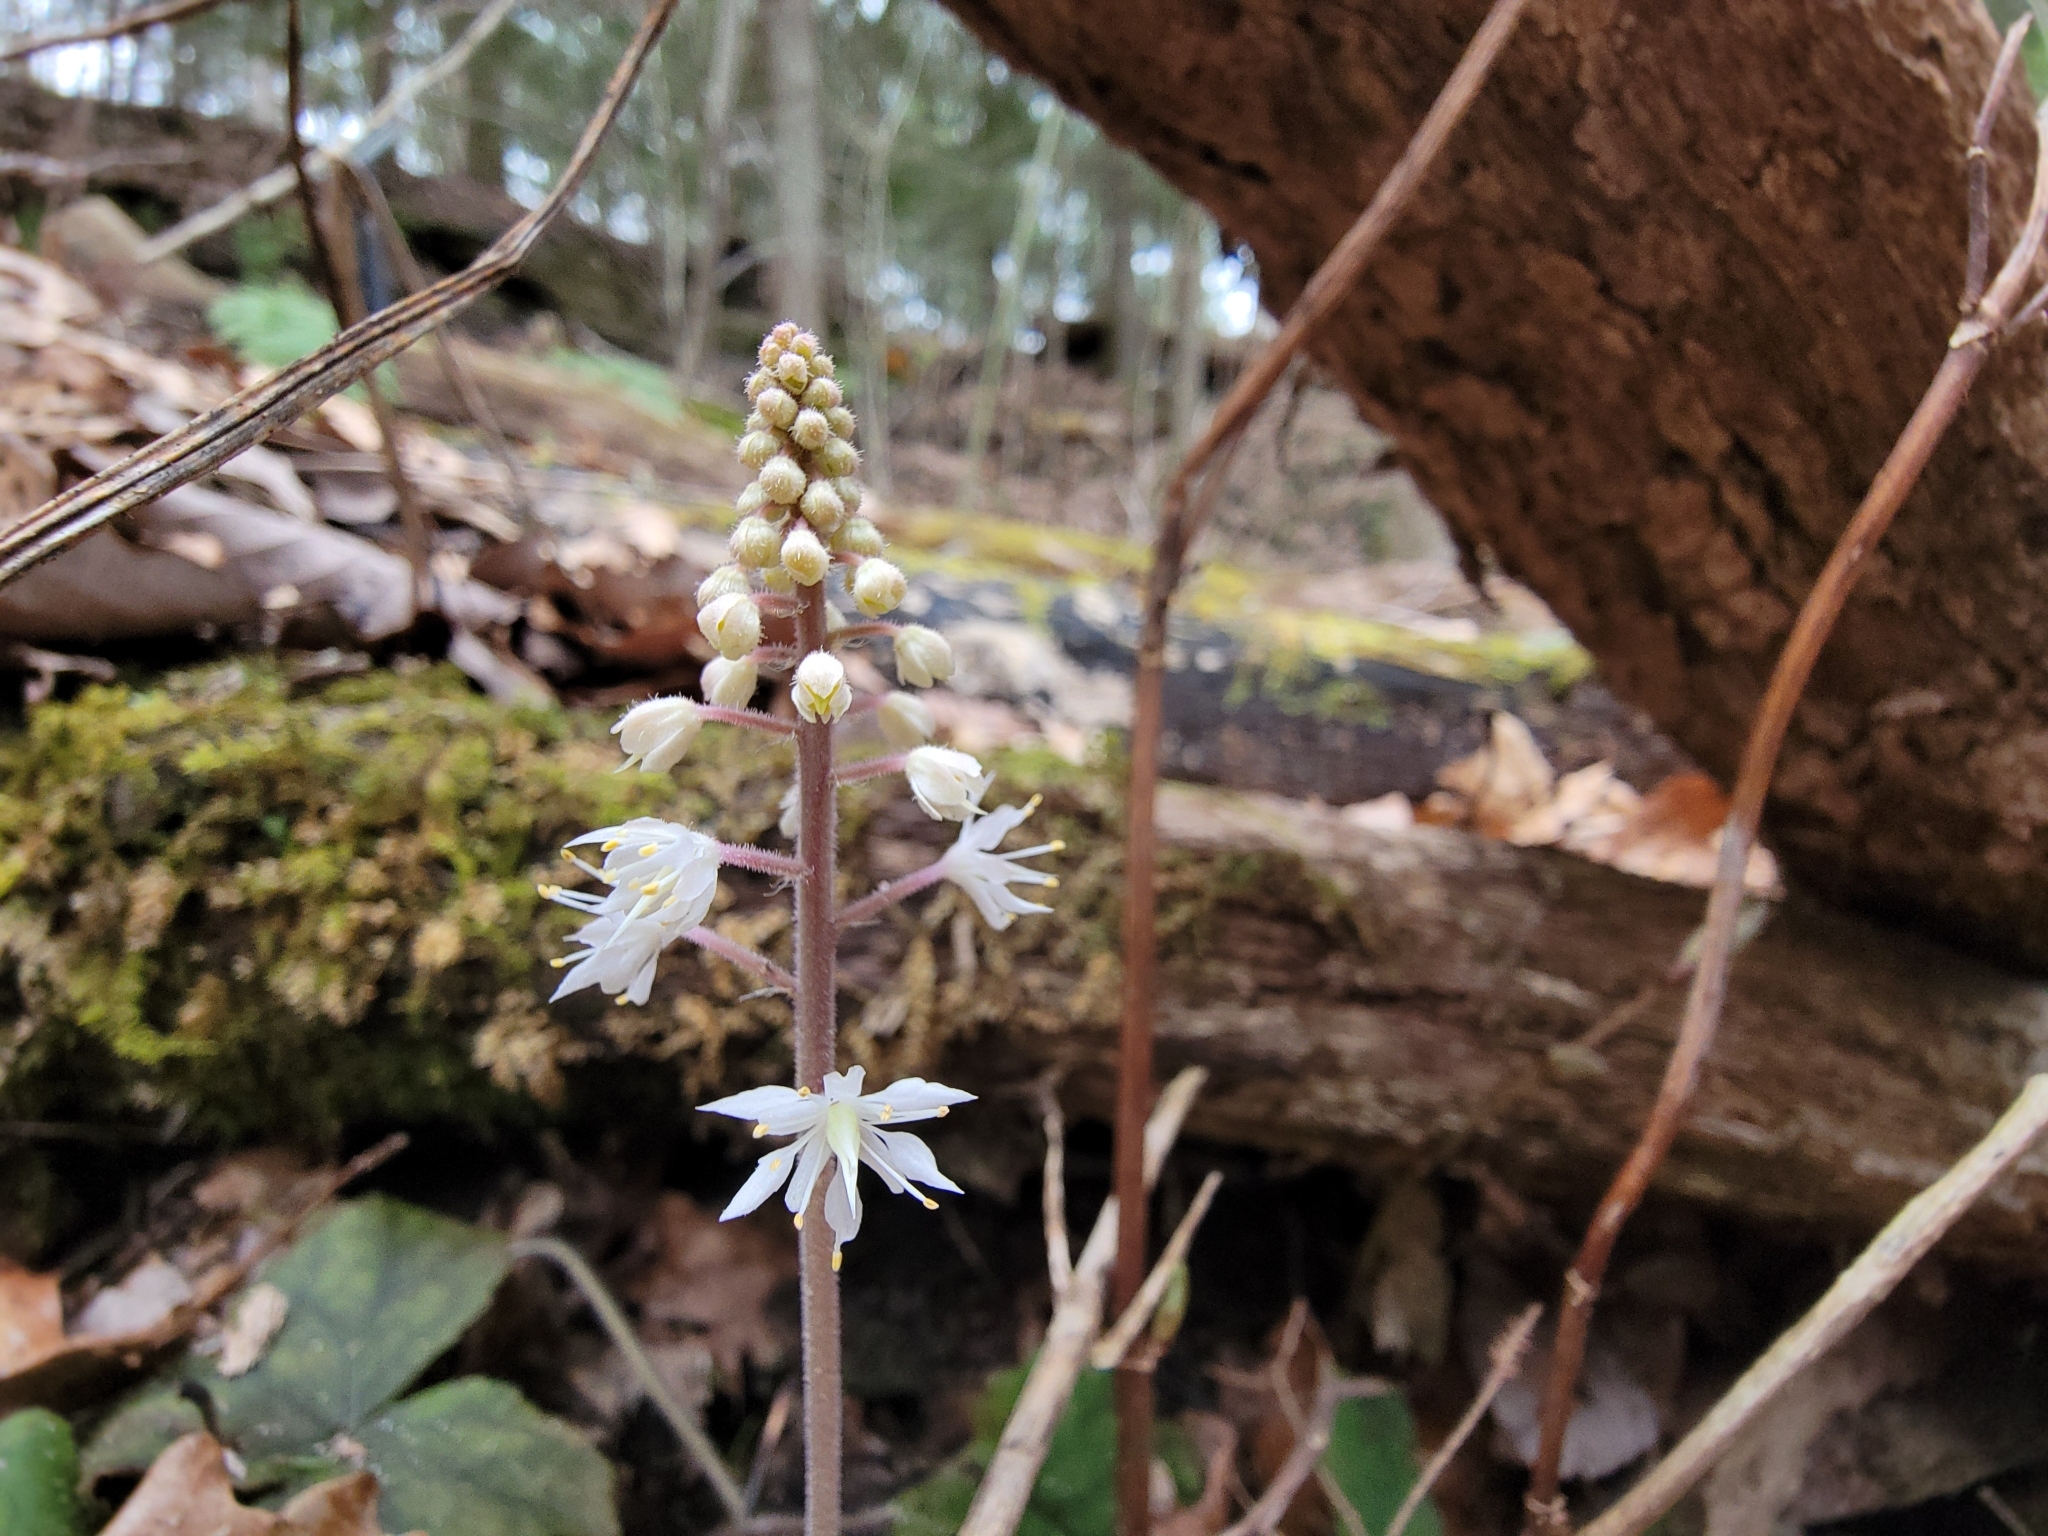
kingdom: Plantae
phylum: Tracheophyta
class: Magnoliopsida
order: Saxifragales
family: Saxifragaceae
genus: Tiarella
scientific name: Tiarella stolonifera
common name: Stoloniferous foamflower
